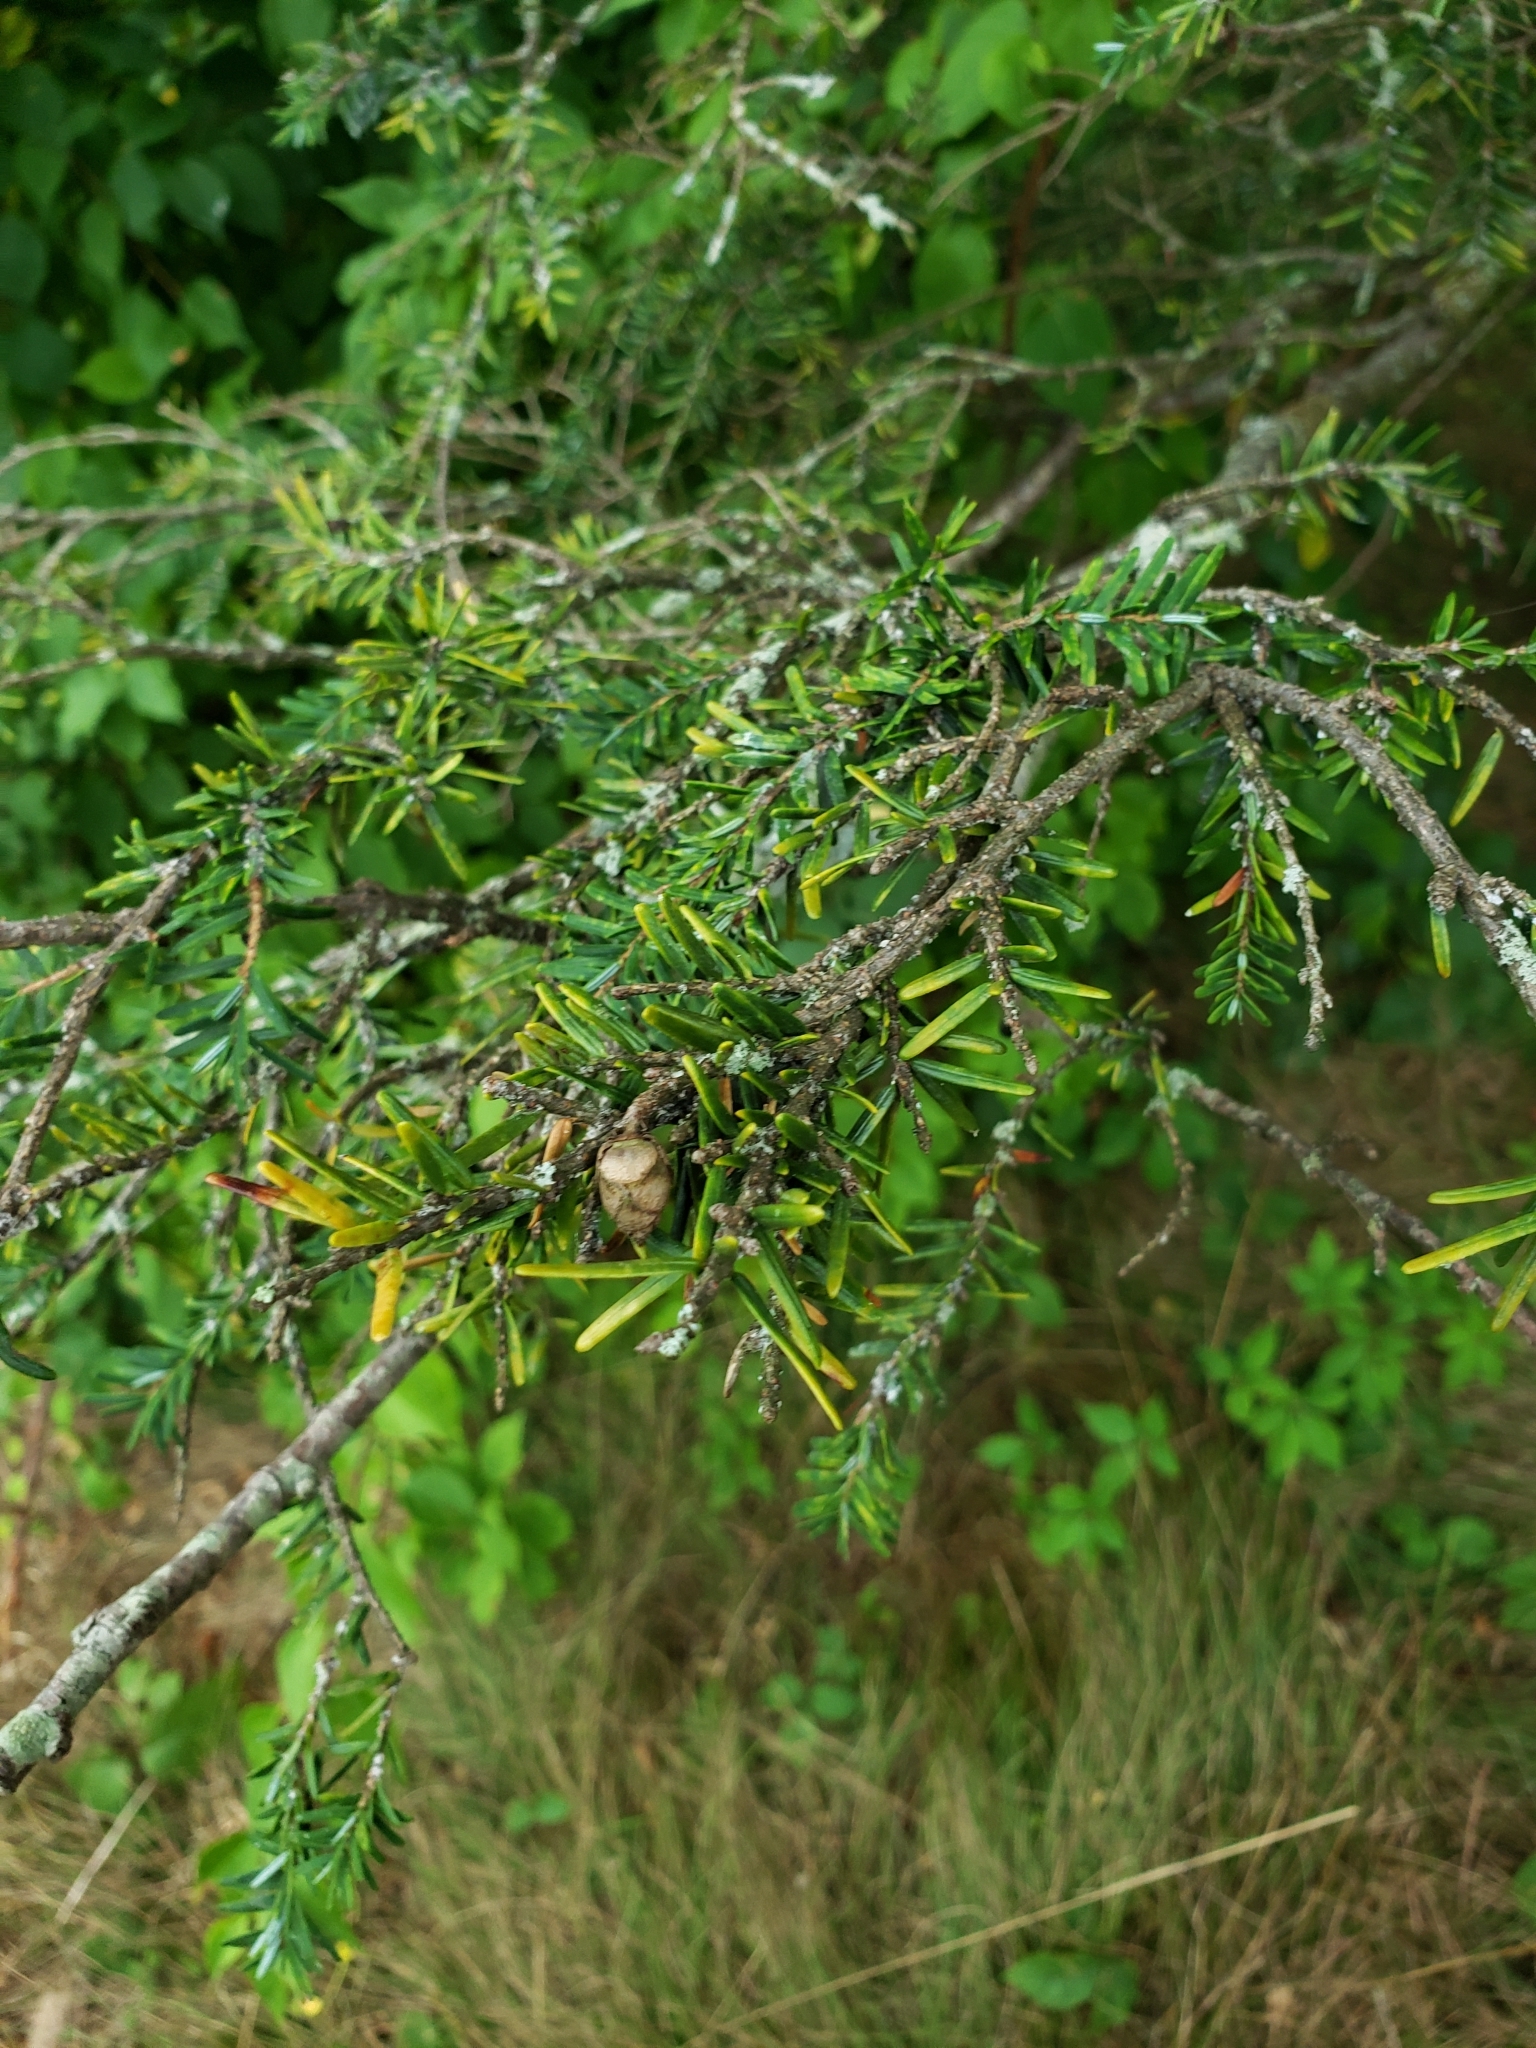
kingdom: Plantae
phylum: Tracheophyta
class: Pinopsida
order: Pinales
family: Pinaceae
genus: Tsuga
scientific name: Tsuga canadensis
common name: Eastern hemlock
